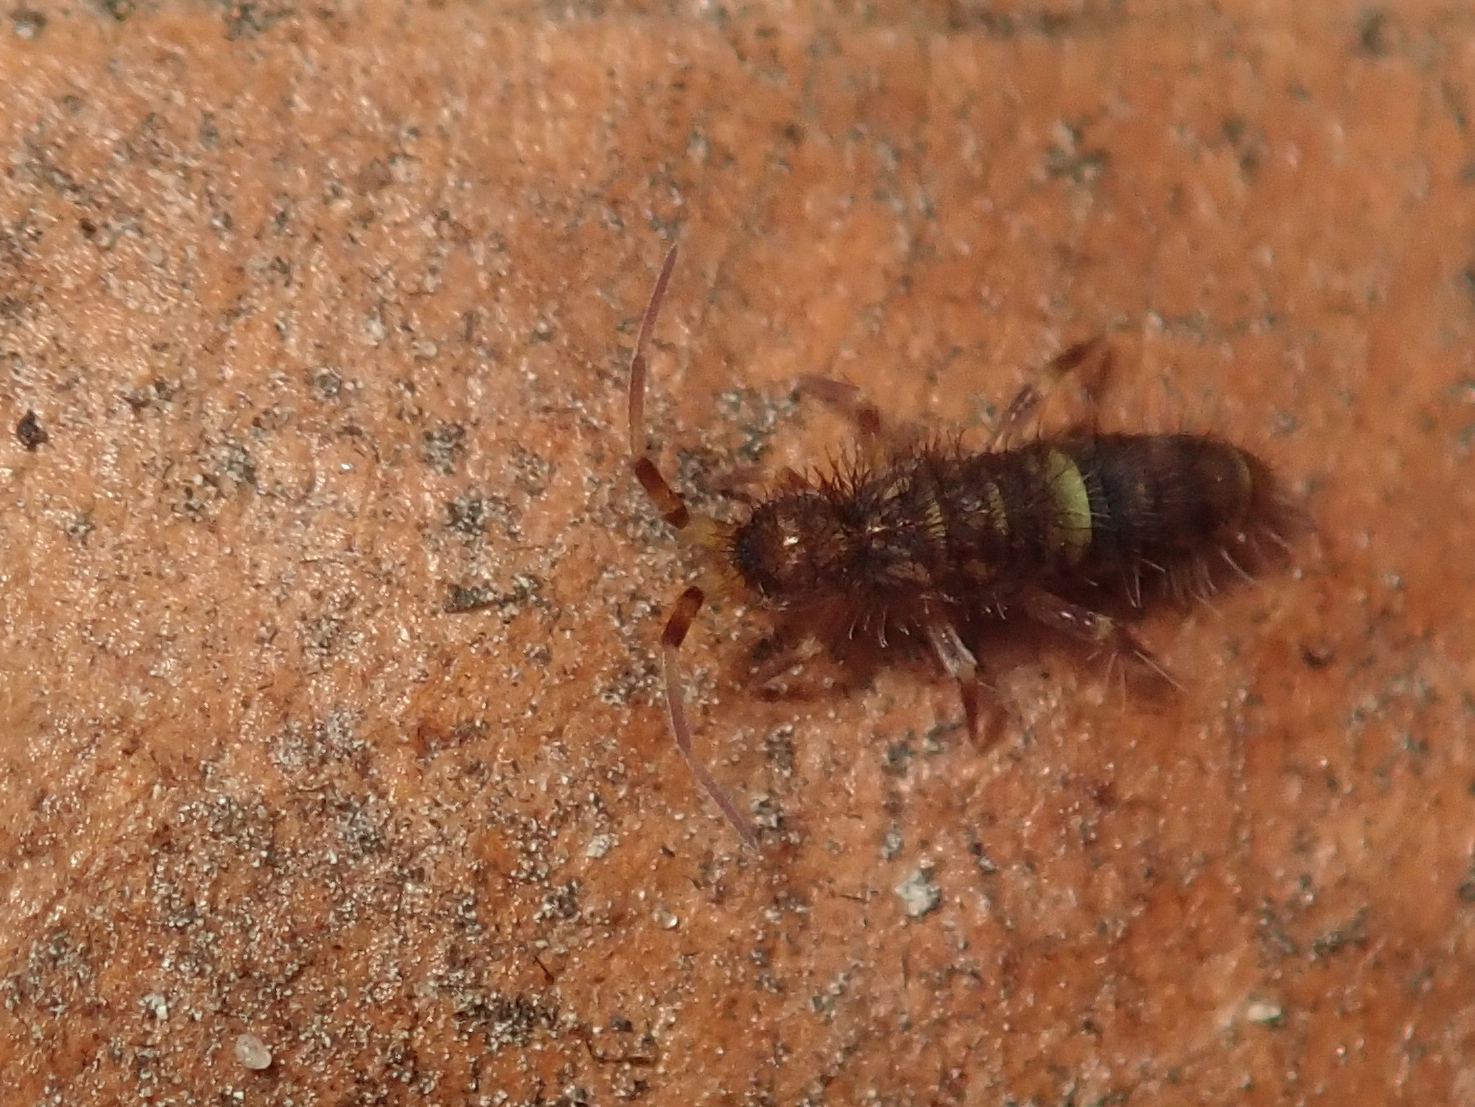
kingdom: Animalia
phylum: Arthropoda
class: Collembola
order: Entomobryomorpha
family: Orchesellidae
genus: Orchesella
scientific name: Orchesella cincta
